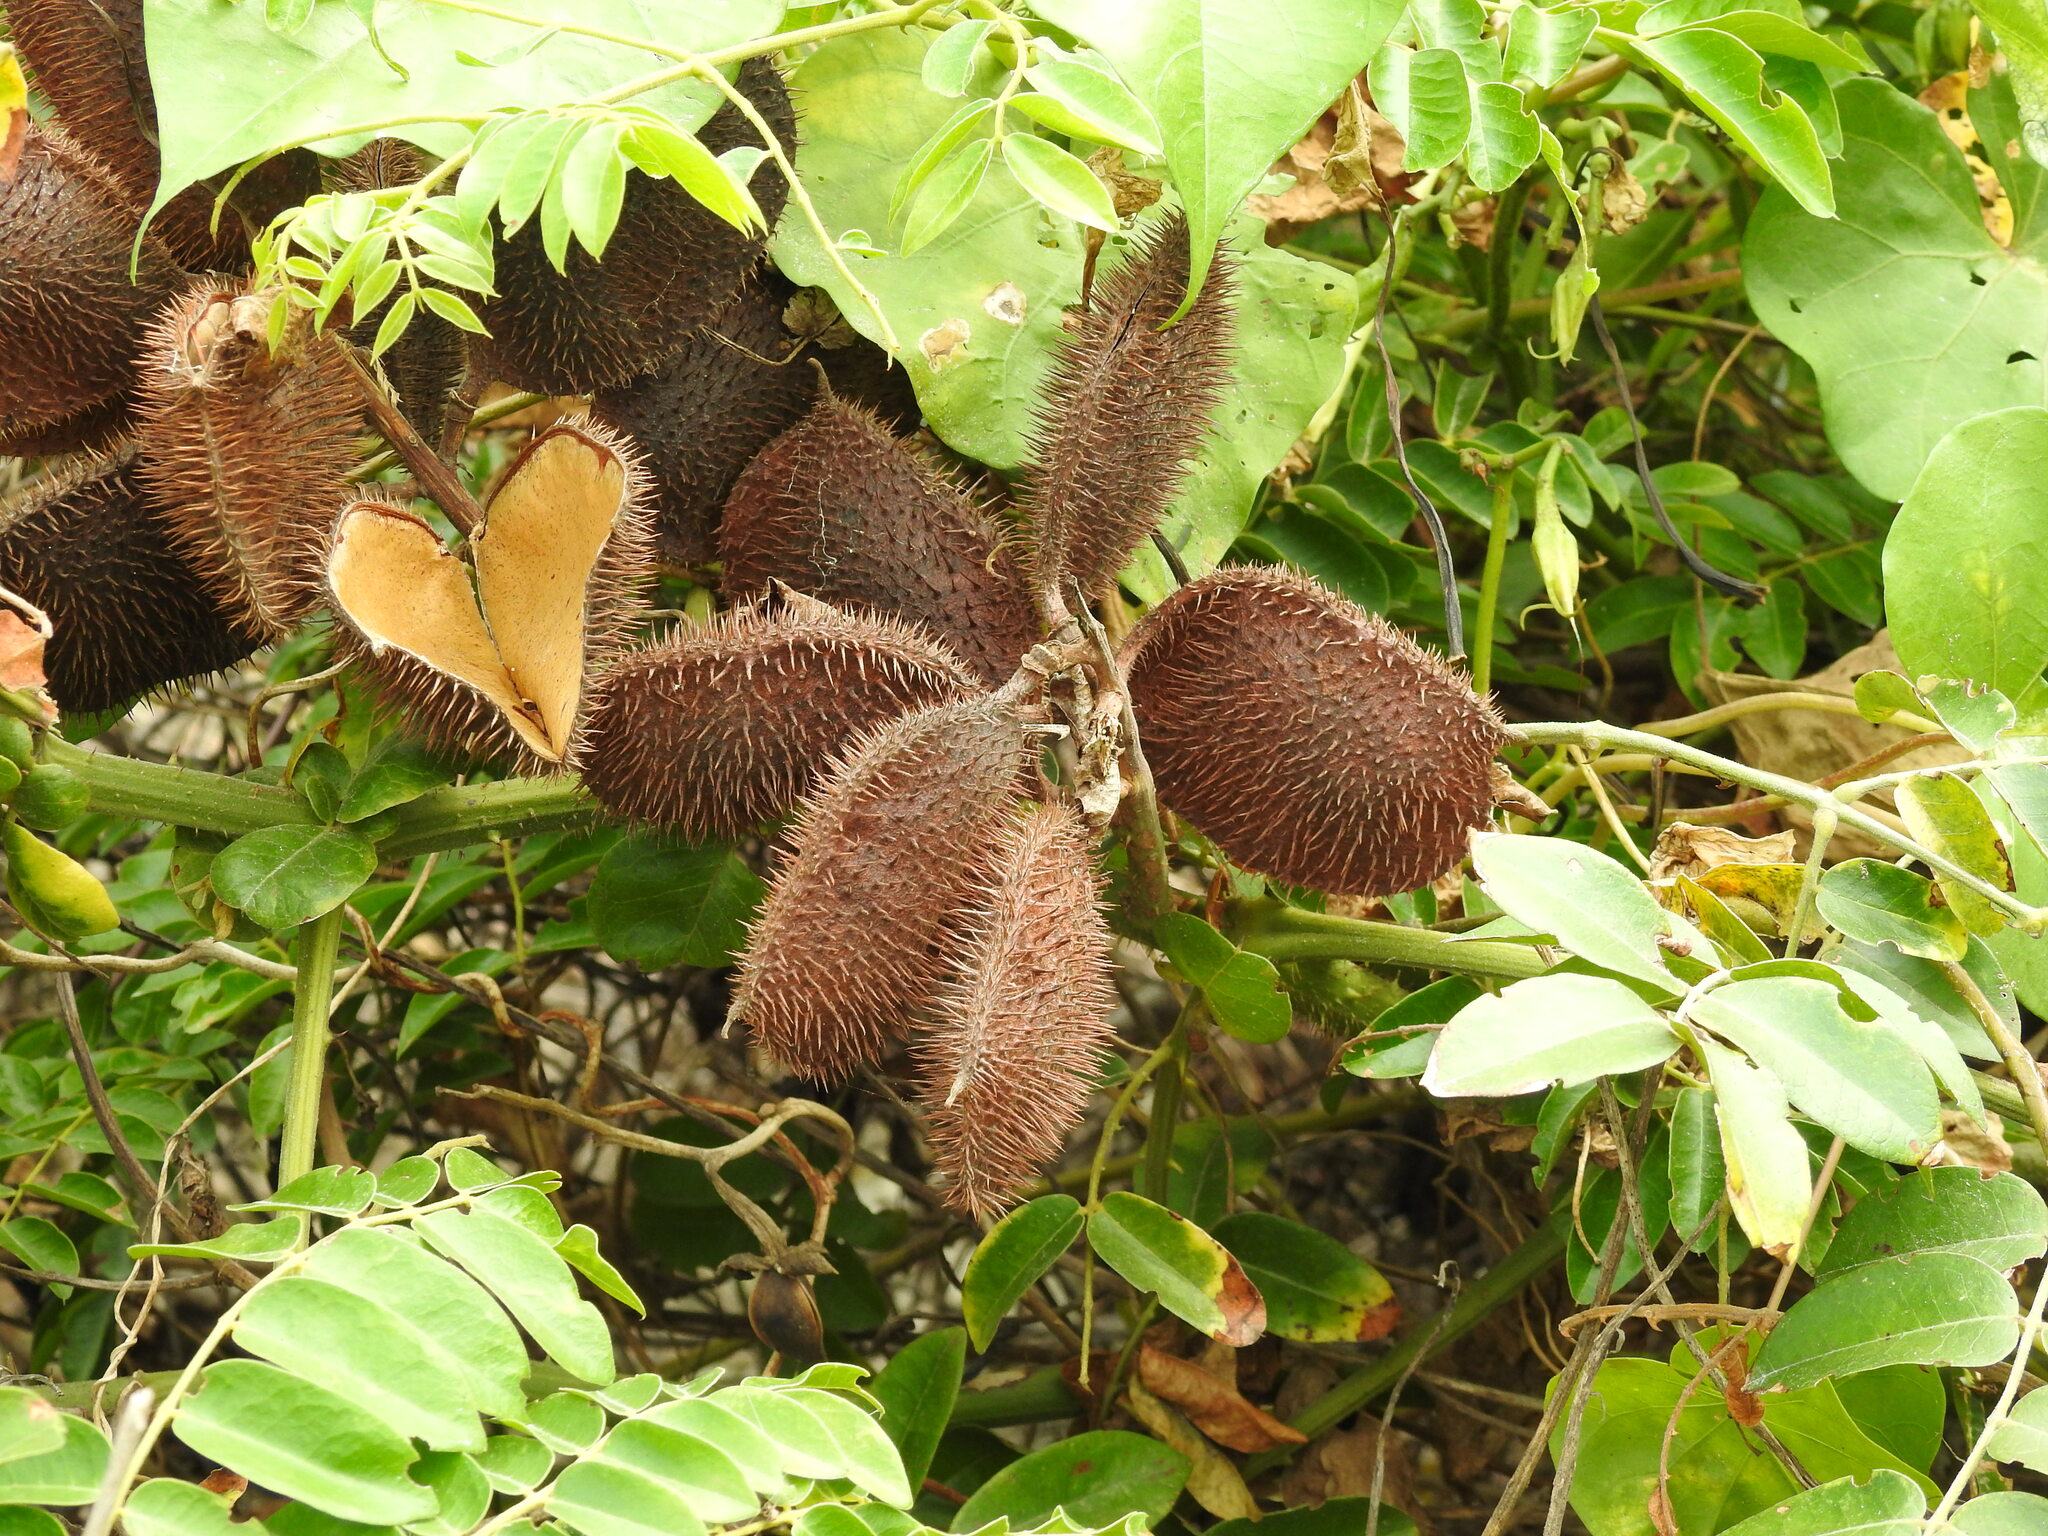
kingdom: Plantae
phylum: Tracheophyta
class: Magnoliopsida
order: Fabales
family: Fabaceae
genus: Guilandina
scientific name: Guilandina bonduc
